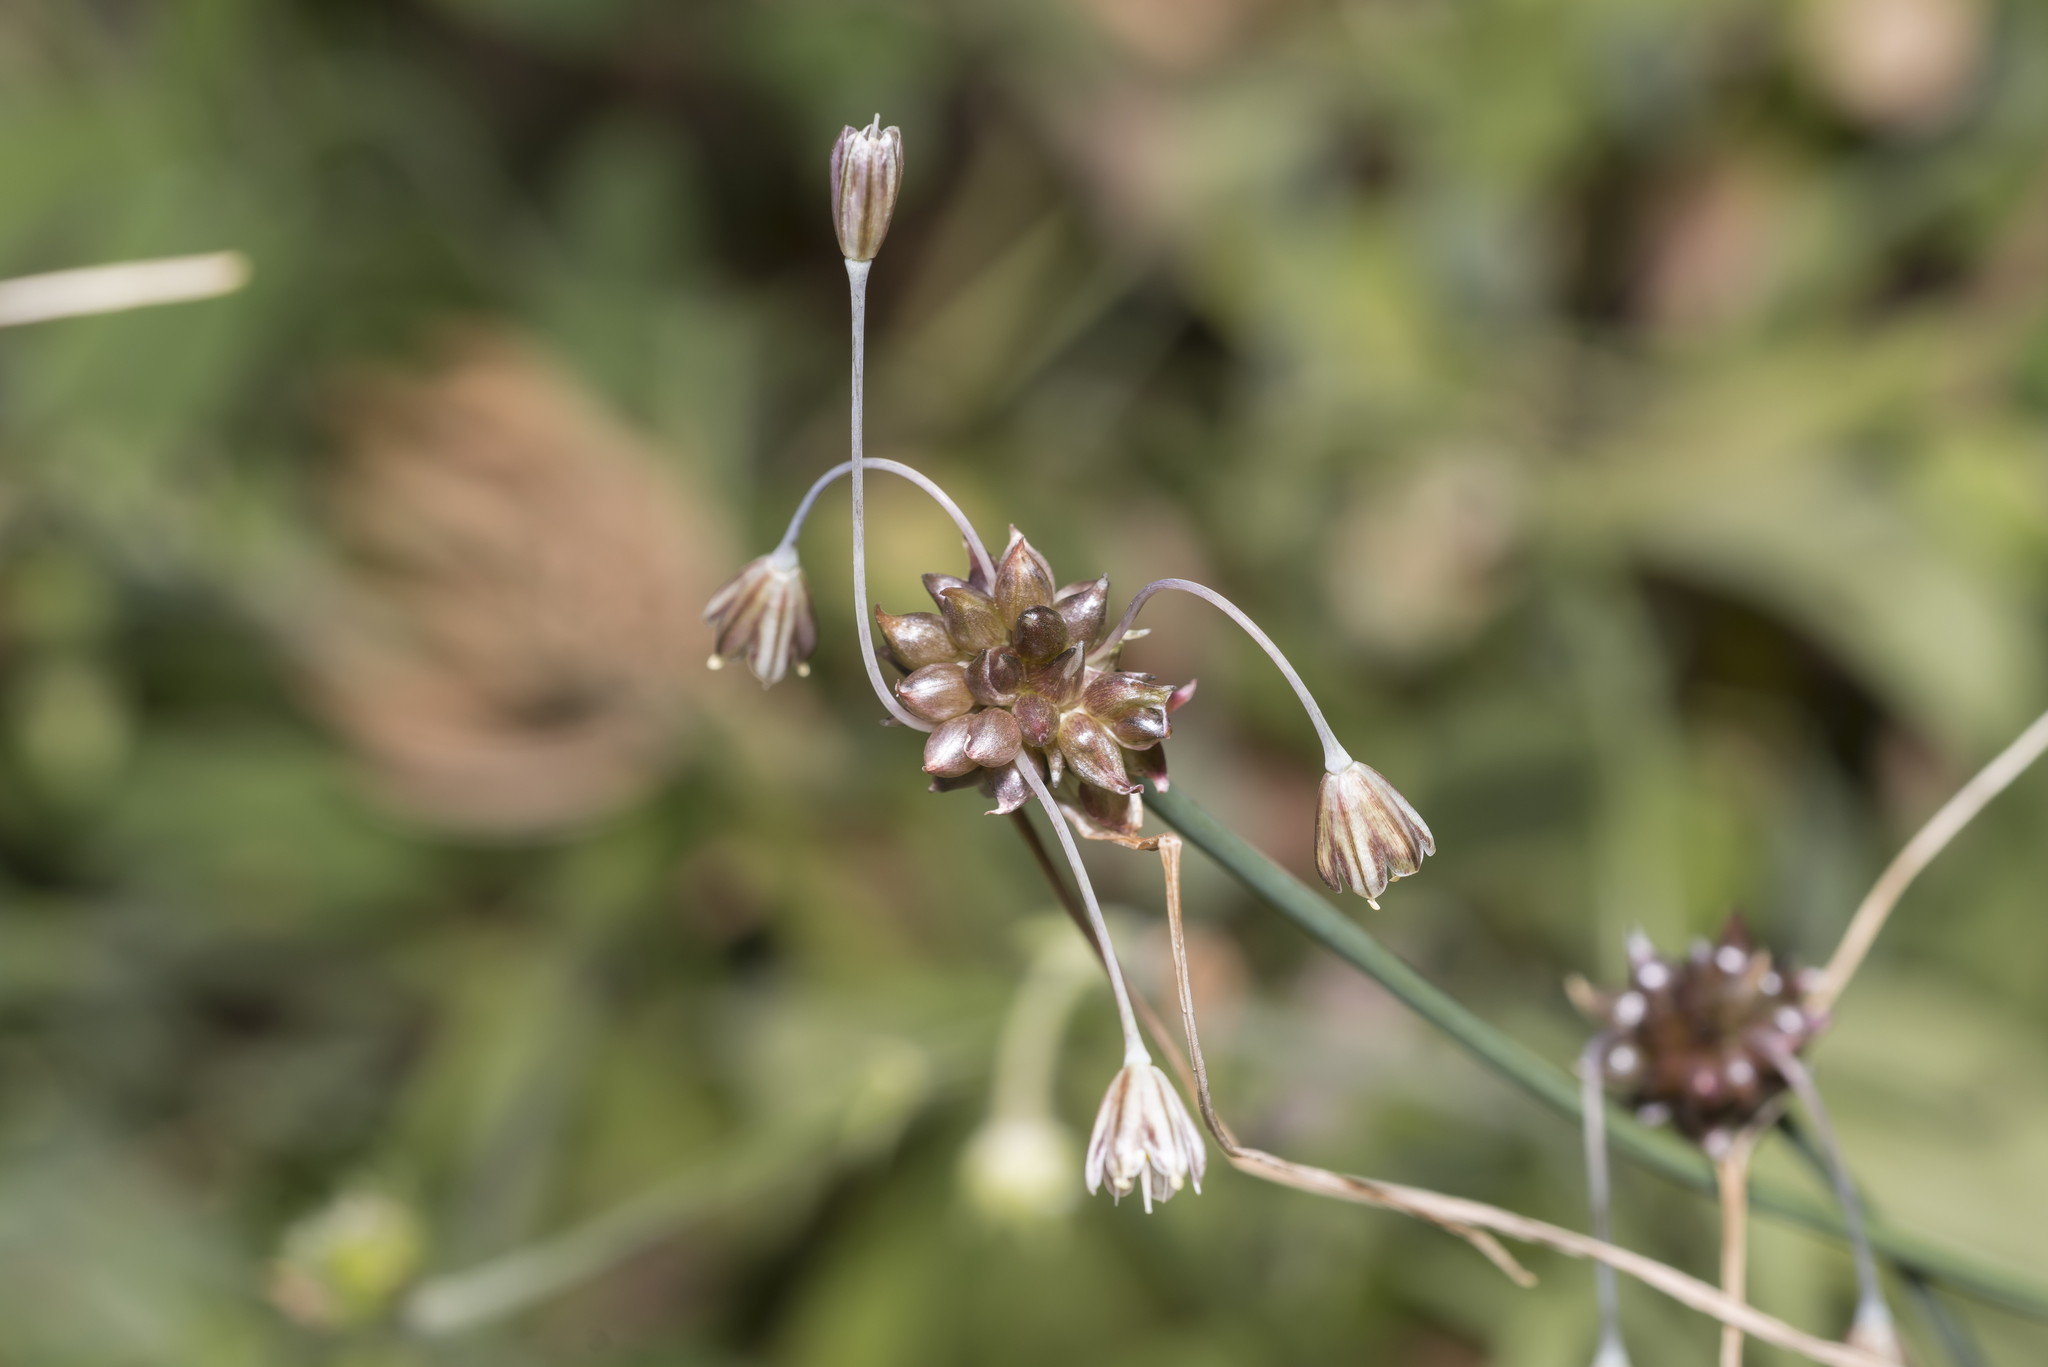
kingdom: Plantae
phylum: Tracheophyta
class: Liliopsida
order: Asparagales
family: Amaryllidaceae
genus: Allium
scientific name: Allium oleraceum
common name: Field garlic
